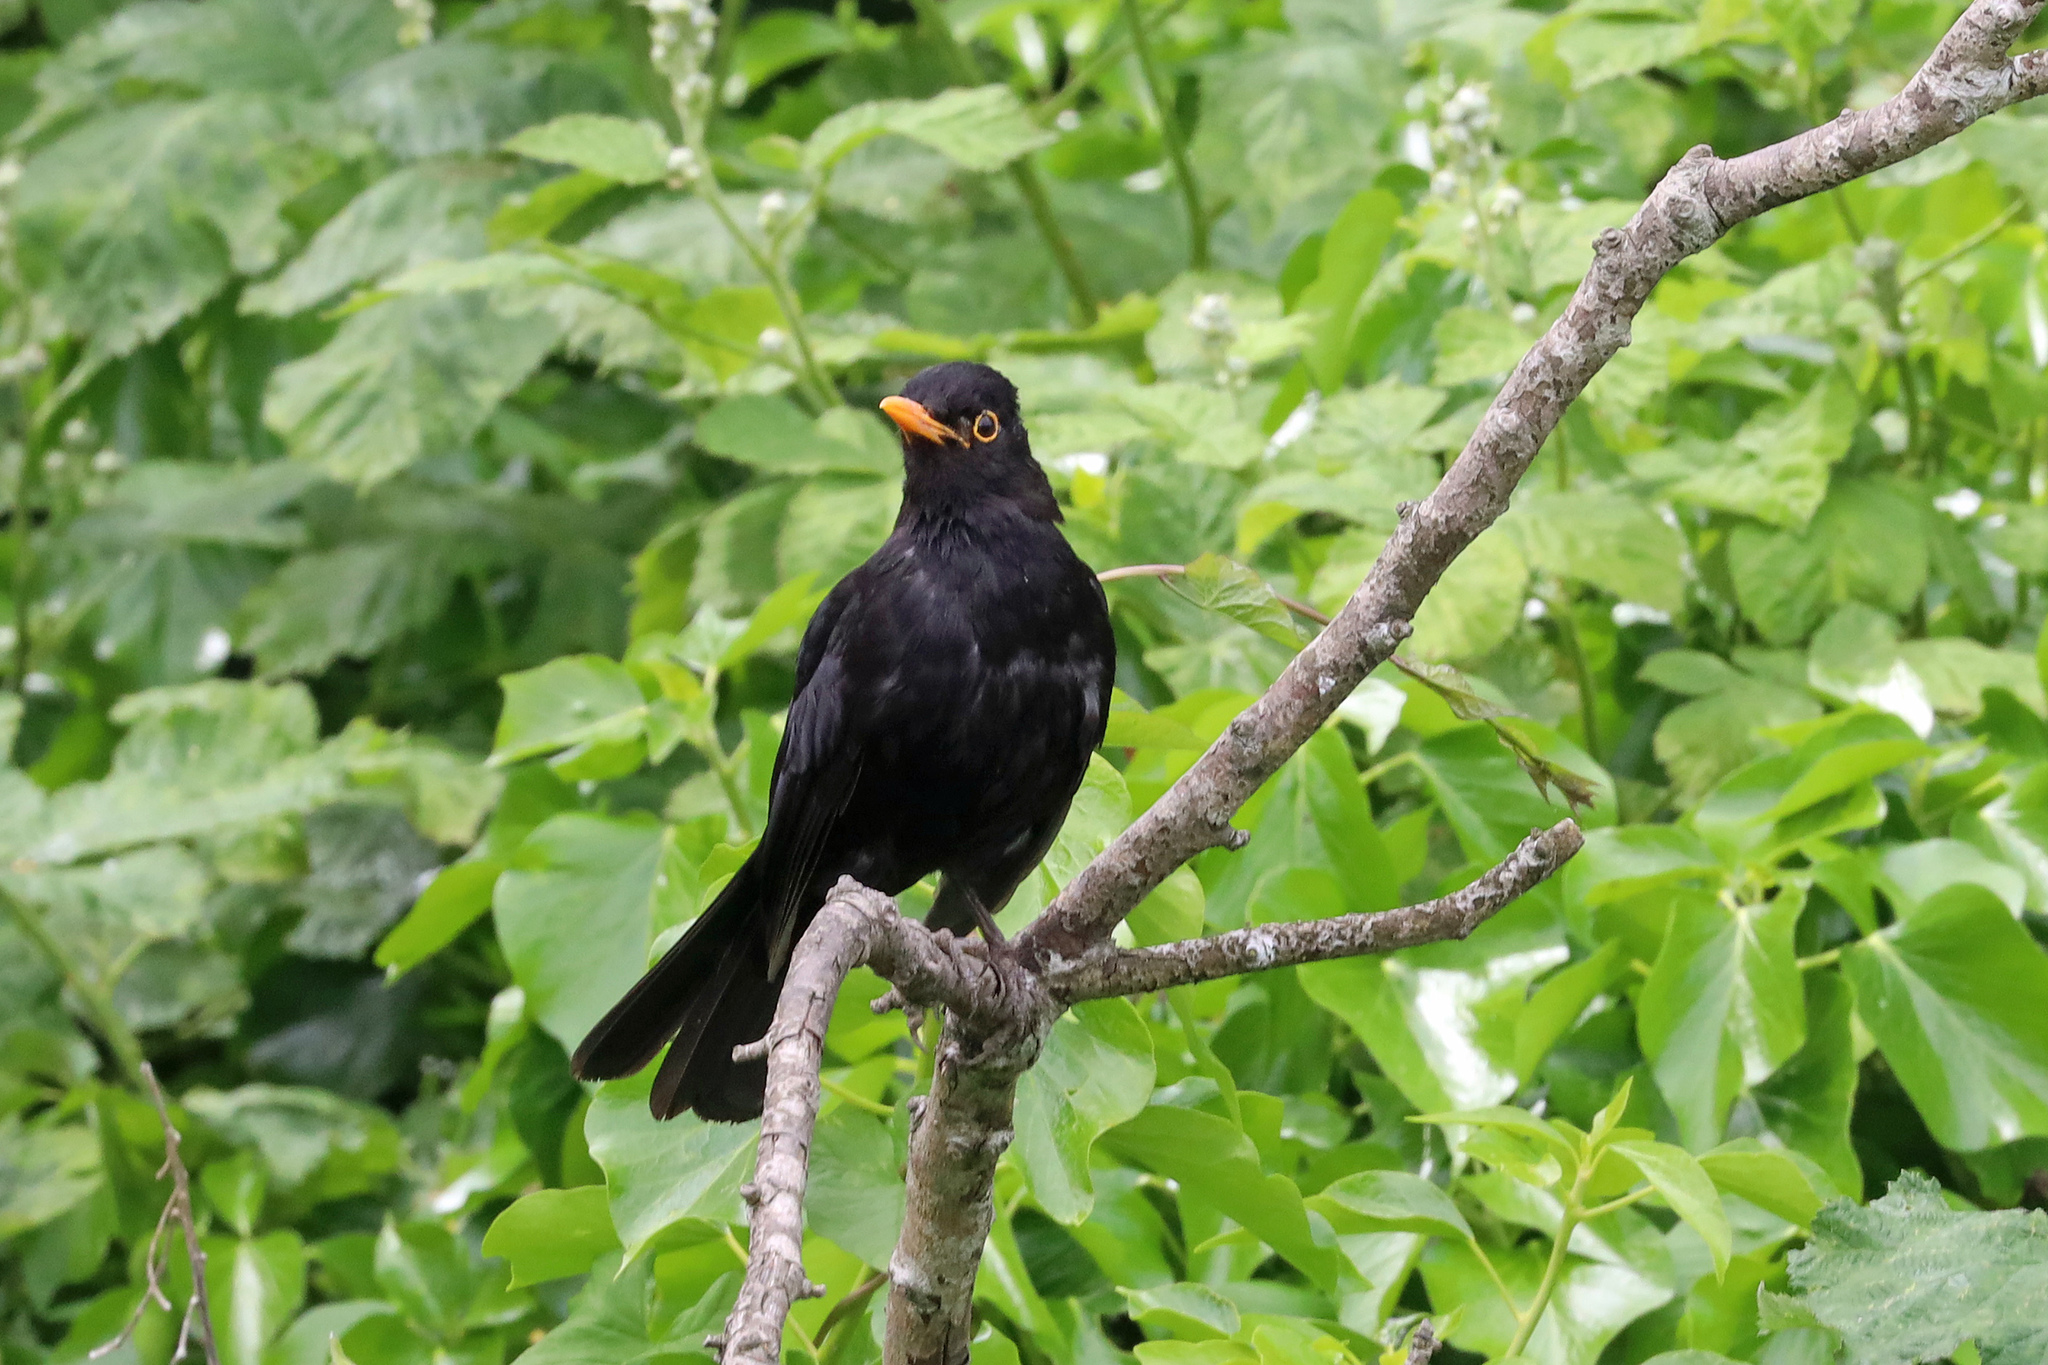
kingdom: Animalia
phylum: Chordata
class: Aves
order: Passeriformes
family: Turdidae
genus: Turdus
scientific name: Turdus merula
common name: Common blackbird
